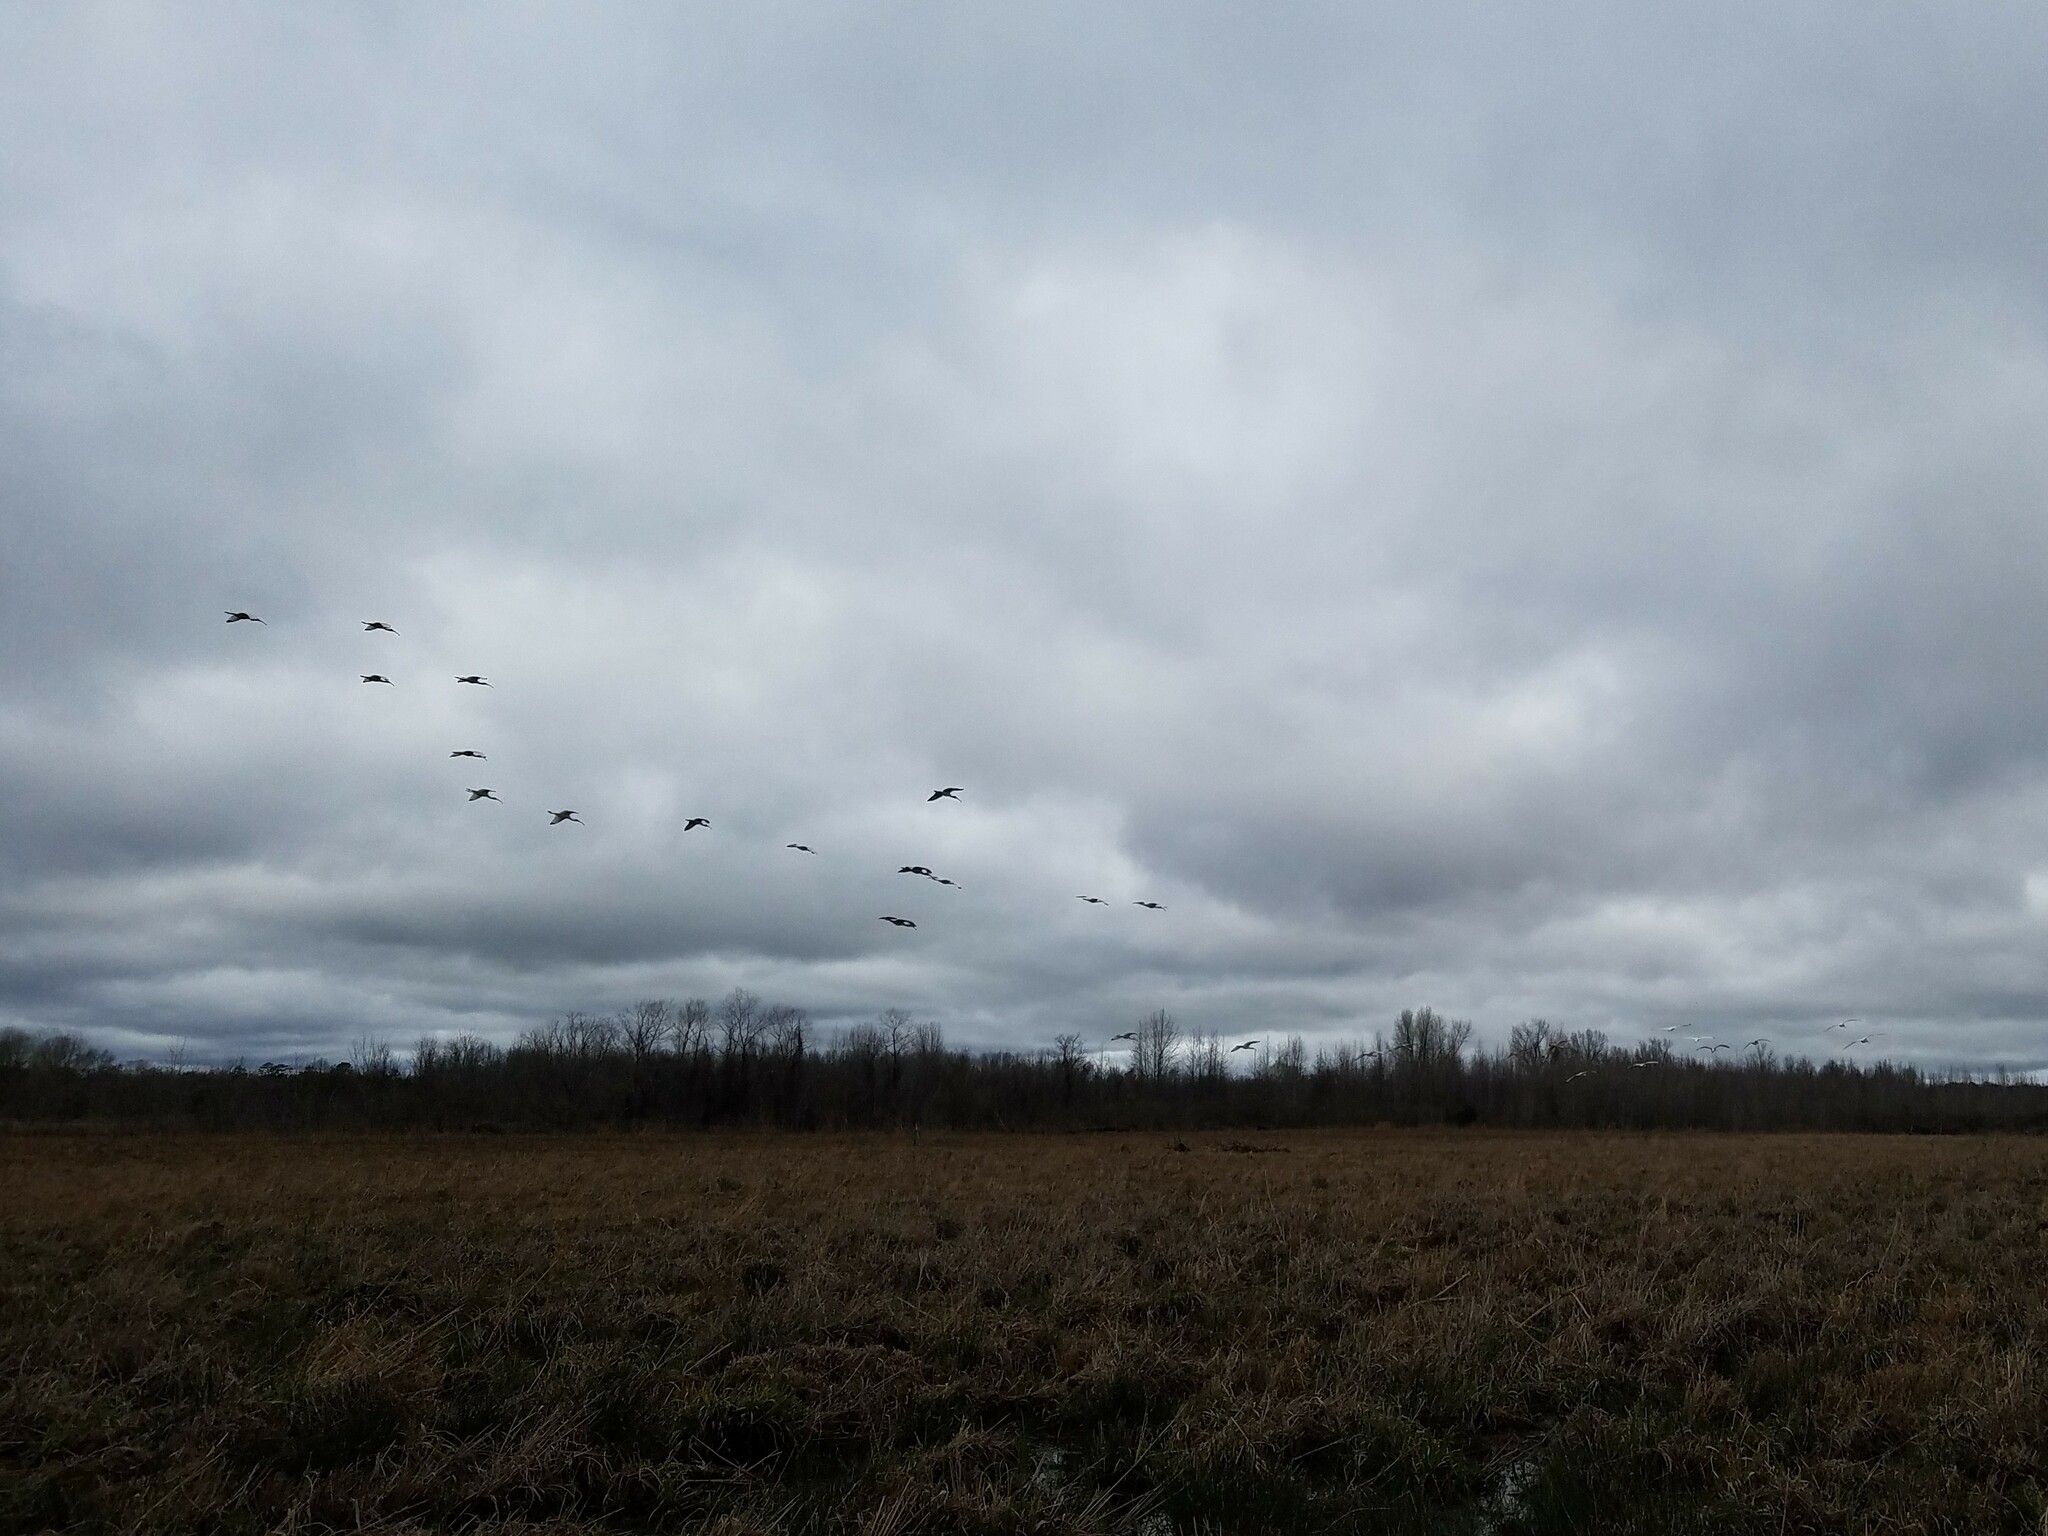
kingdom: Animalia
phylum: Chordata
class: Aves
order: Pelecaniformes
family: Threskiornithidae
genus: Eudocimus
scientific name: Eudocimus albus
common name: White ibis
